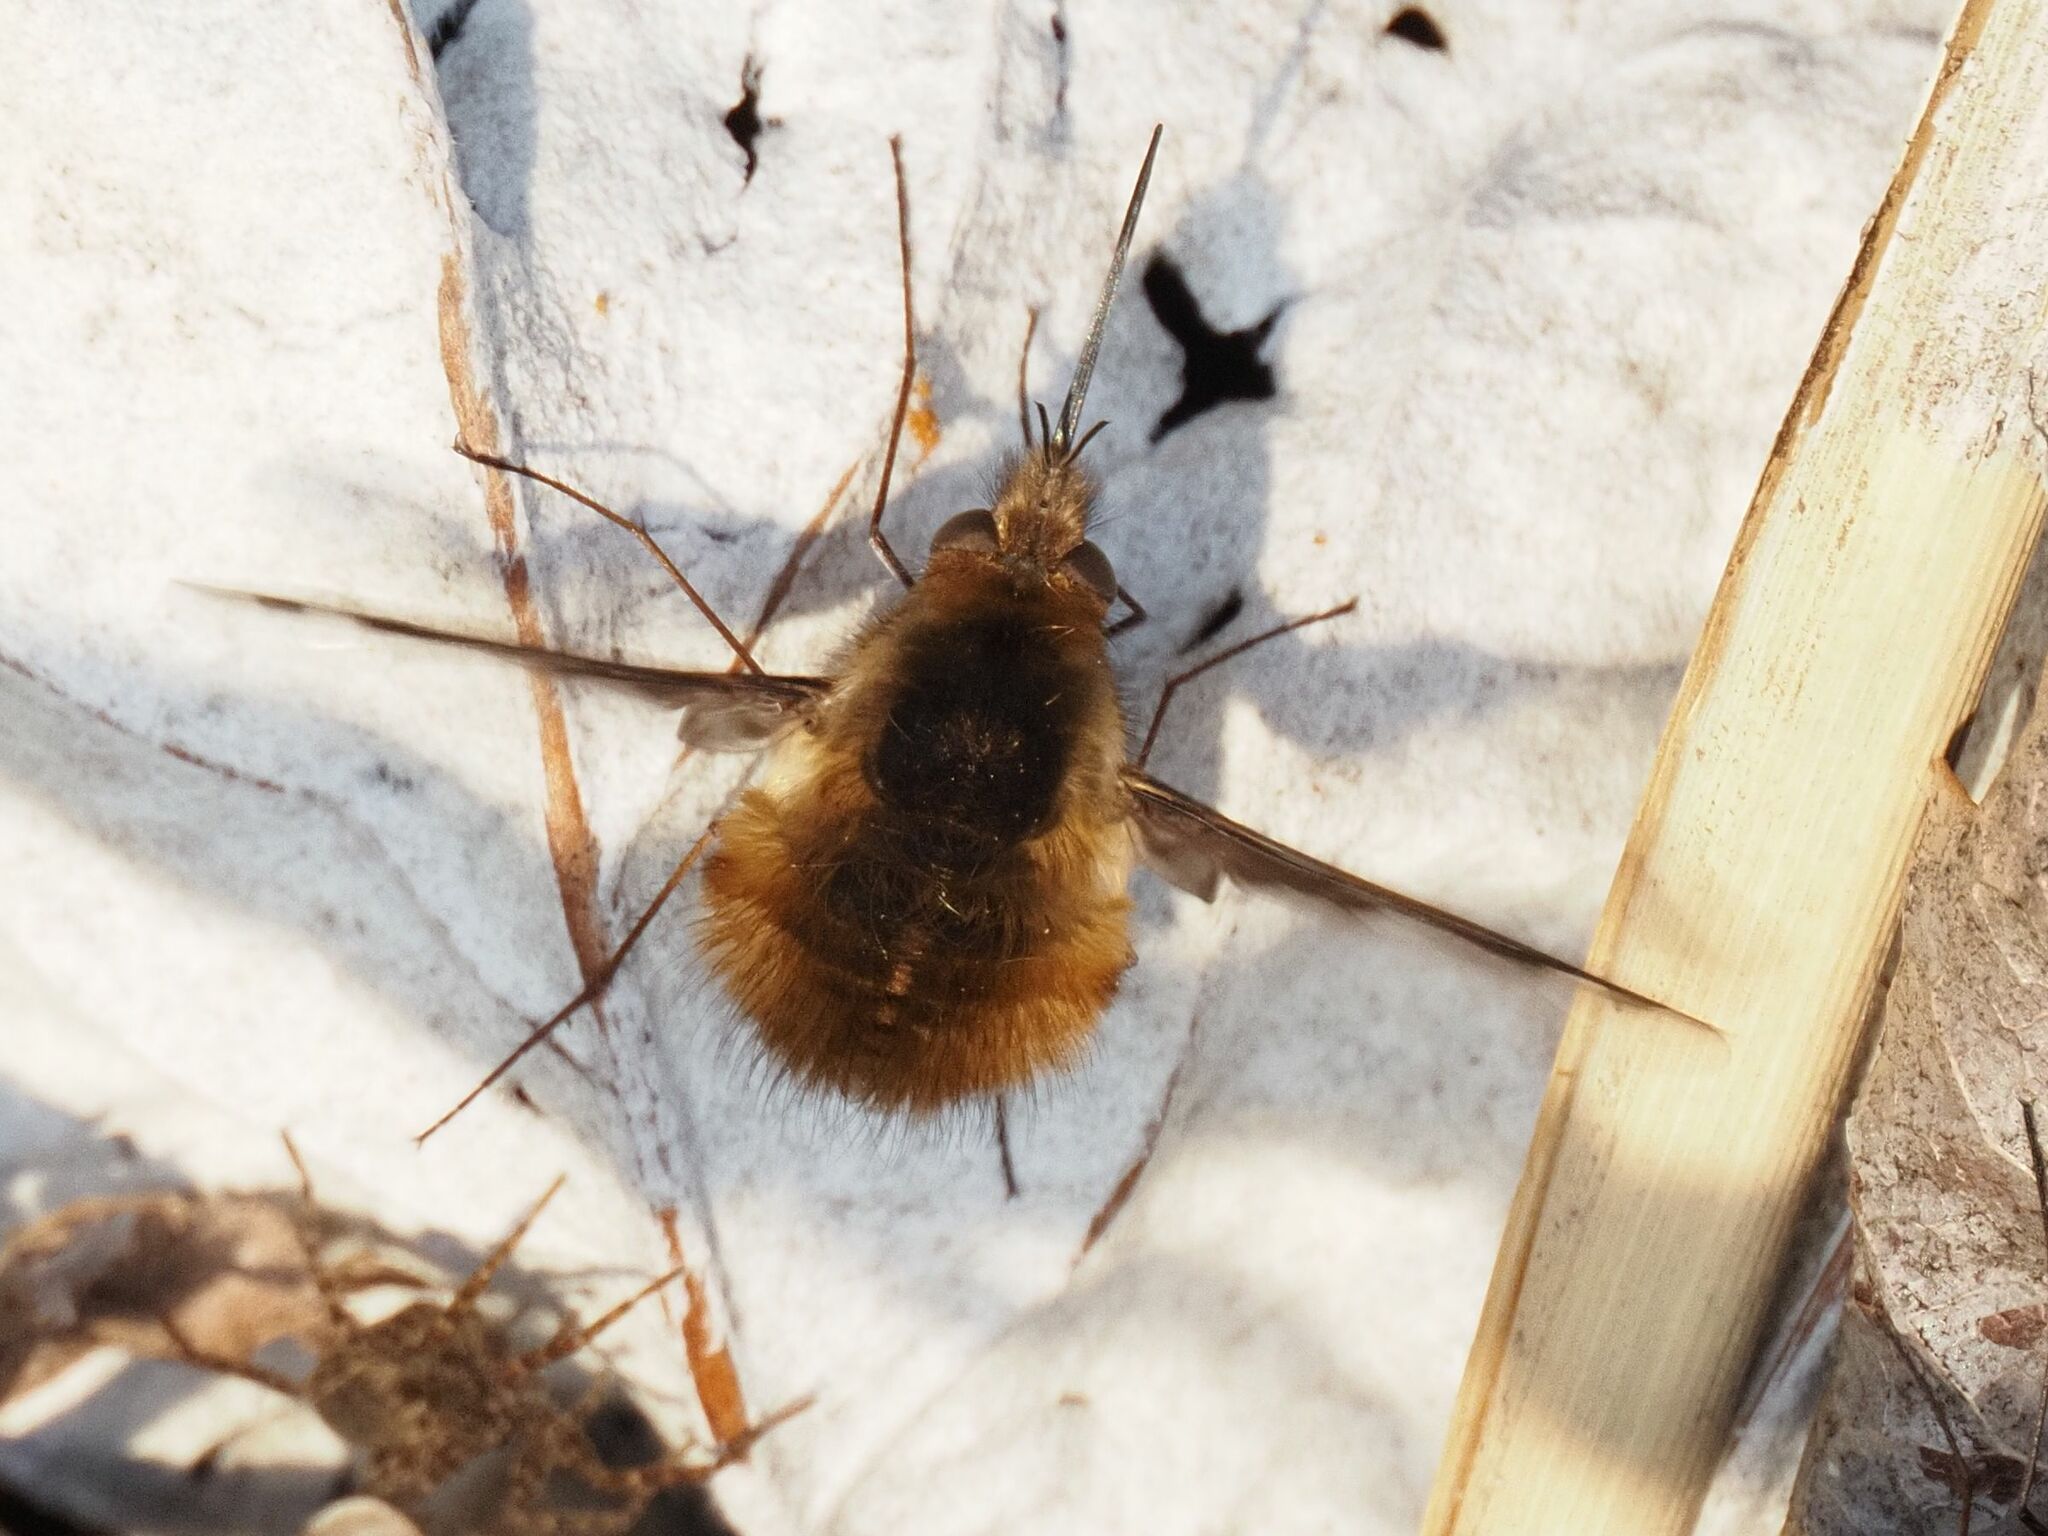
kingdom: Animalia
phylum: Arthropoda
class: Insecta
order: Diptera
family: Bombyliidae
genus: Bombylius
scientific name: Bombylius major
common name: Bee fly
